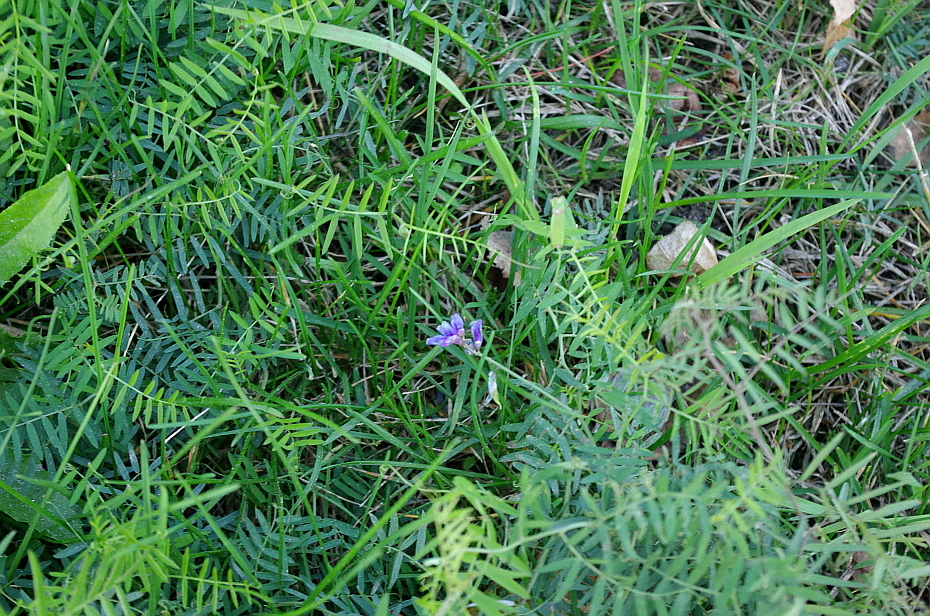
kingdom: Plantae
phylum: Tracheophyta
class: Magnoliopsida
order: Fabales
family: Fabaceae
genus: Vicia
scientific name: Vicia cracca
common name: Bird vetch
